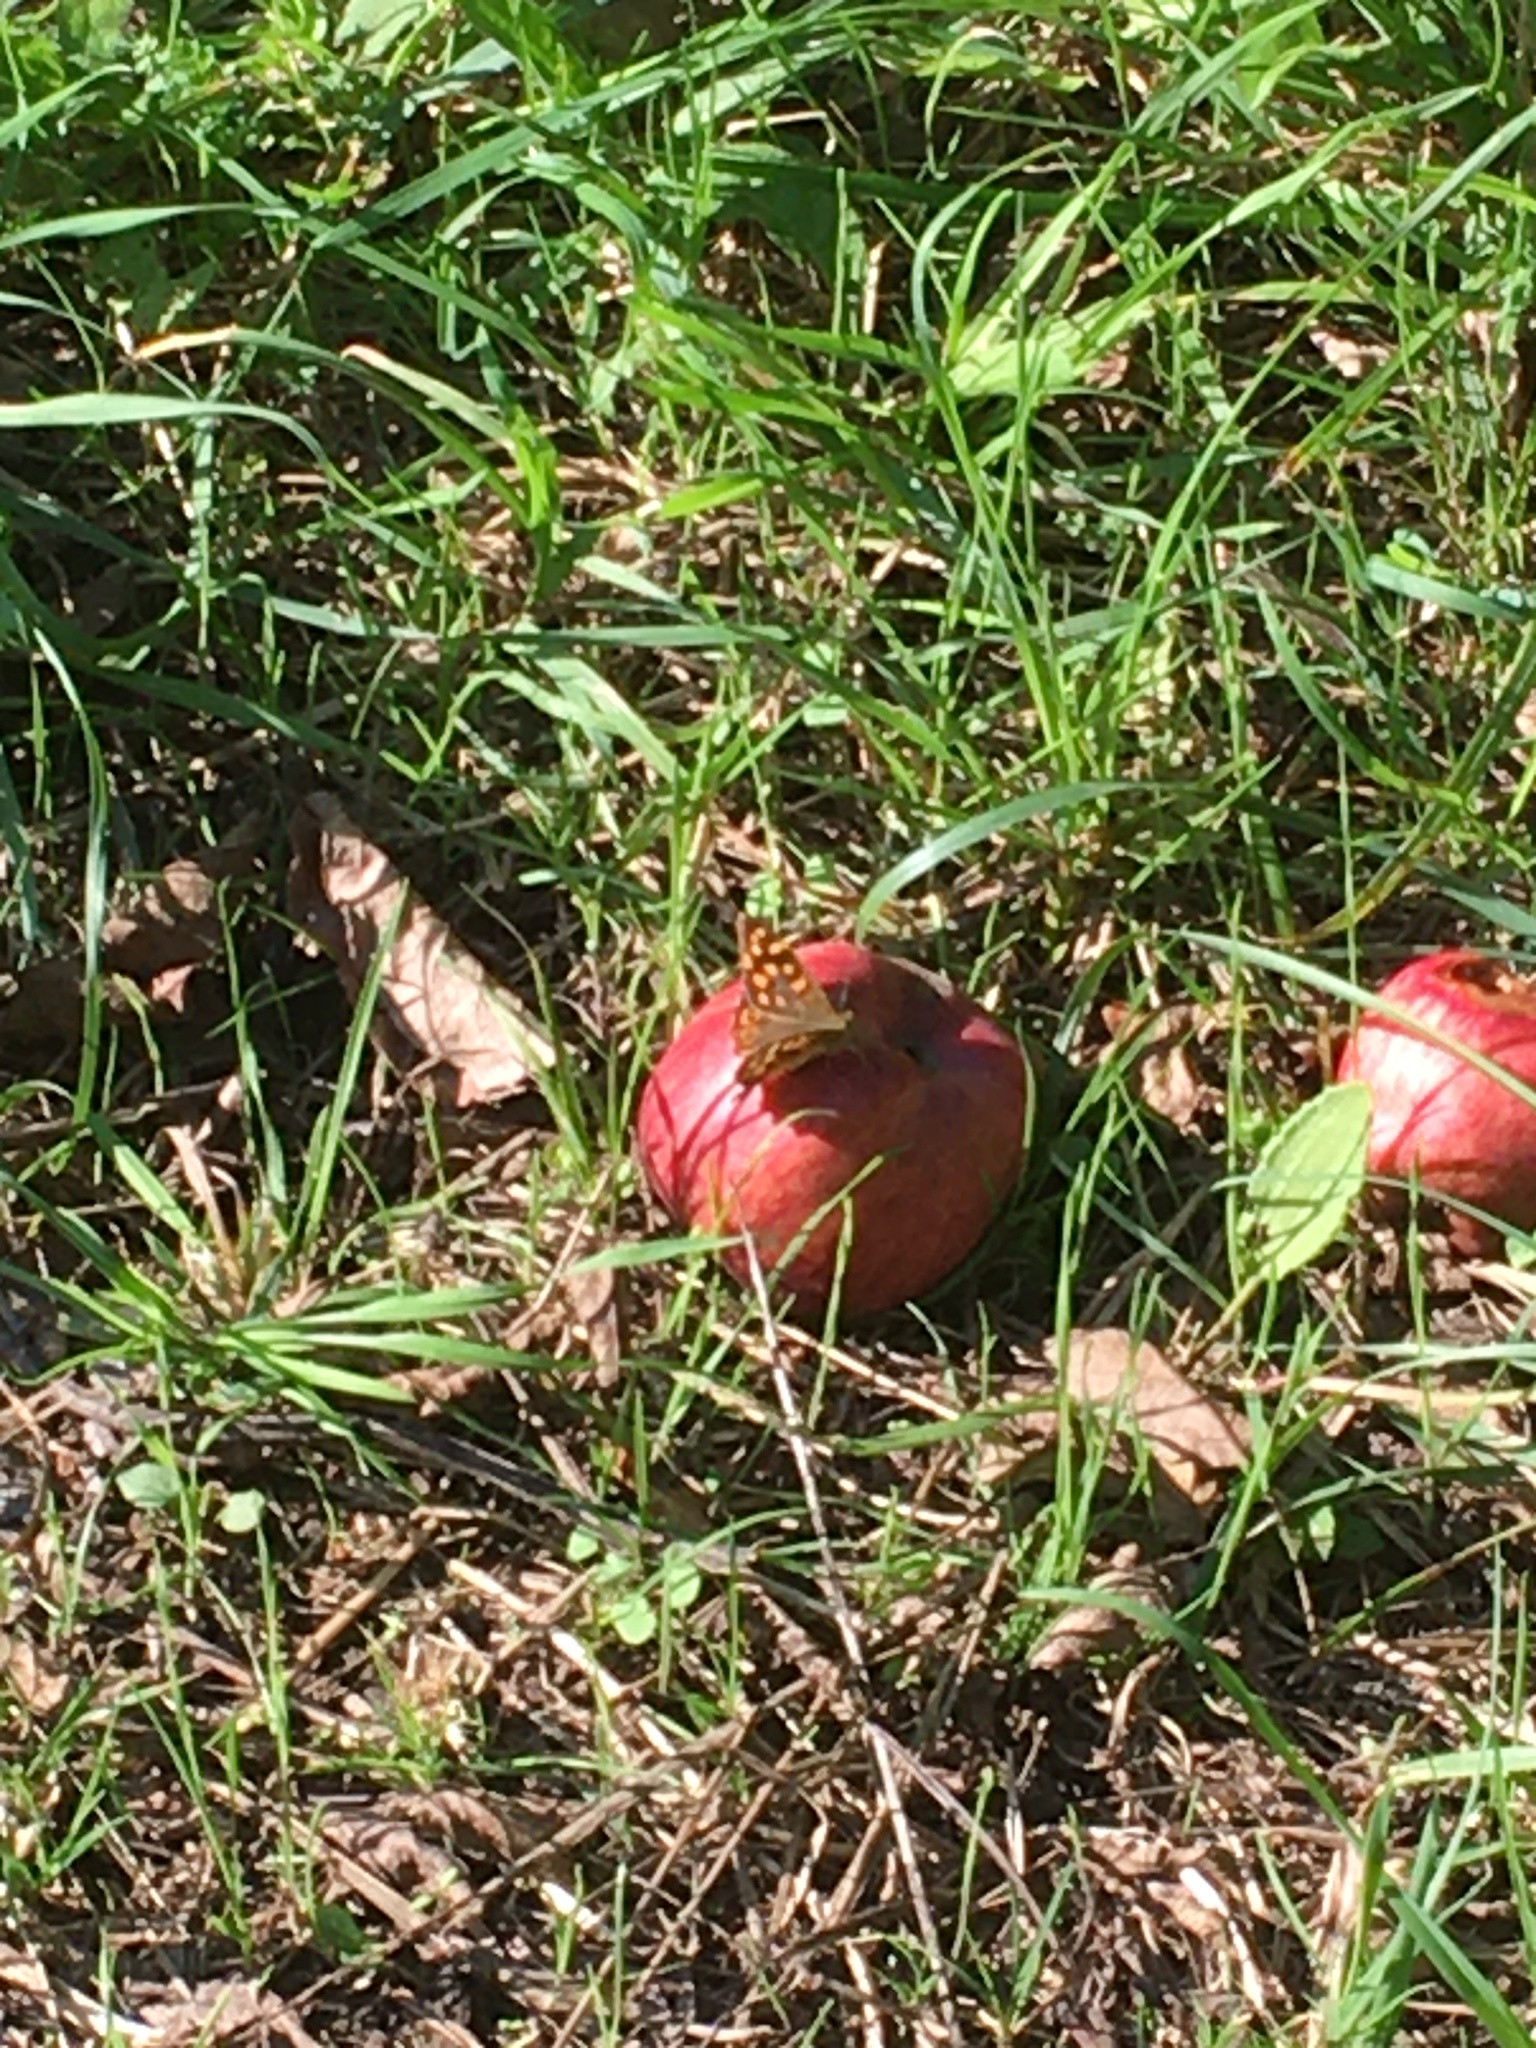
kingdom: Animalia
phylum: Arthropoda
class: Insecta
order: Lepidoptera
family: Nymphalidae
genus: Pararge
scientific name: Pararge aegeria
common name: Speckled wood
